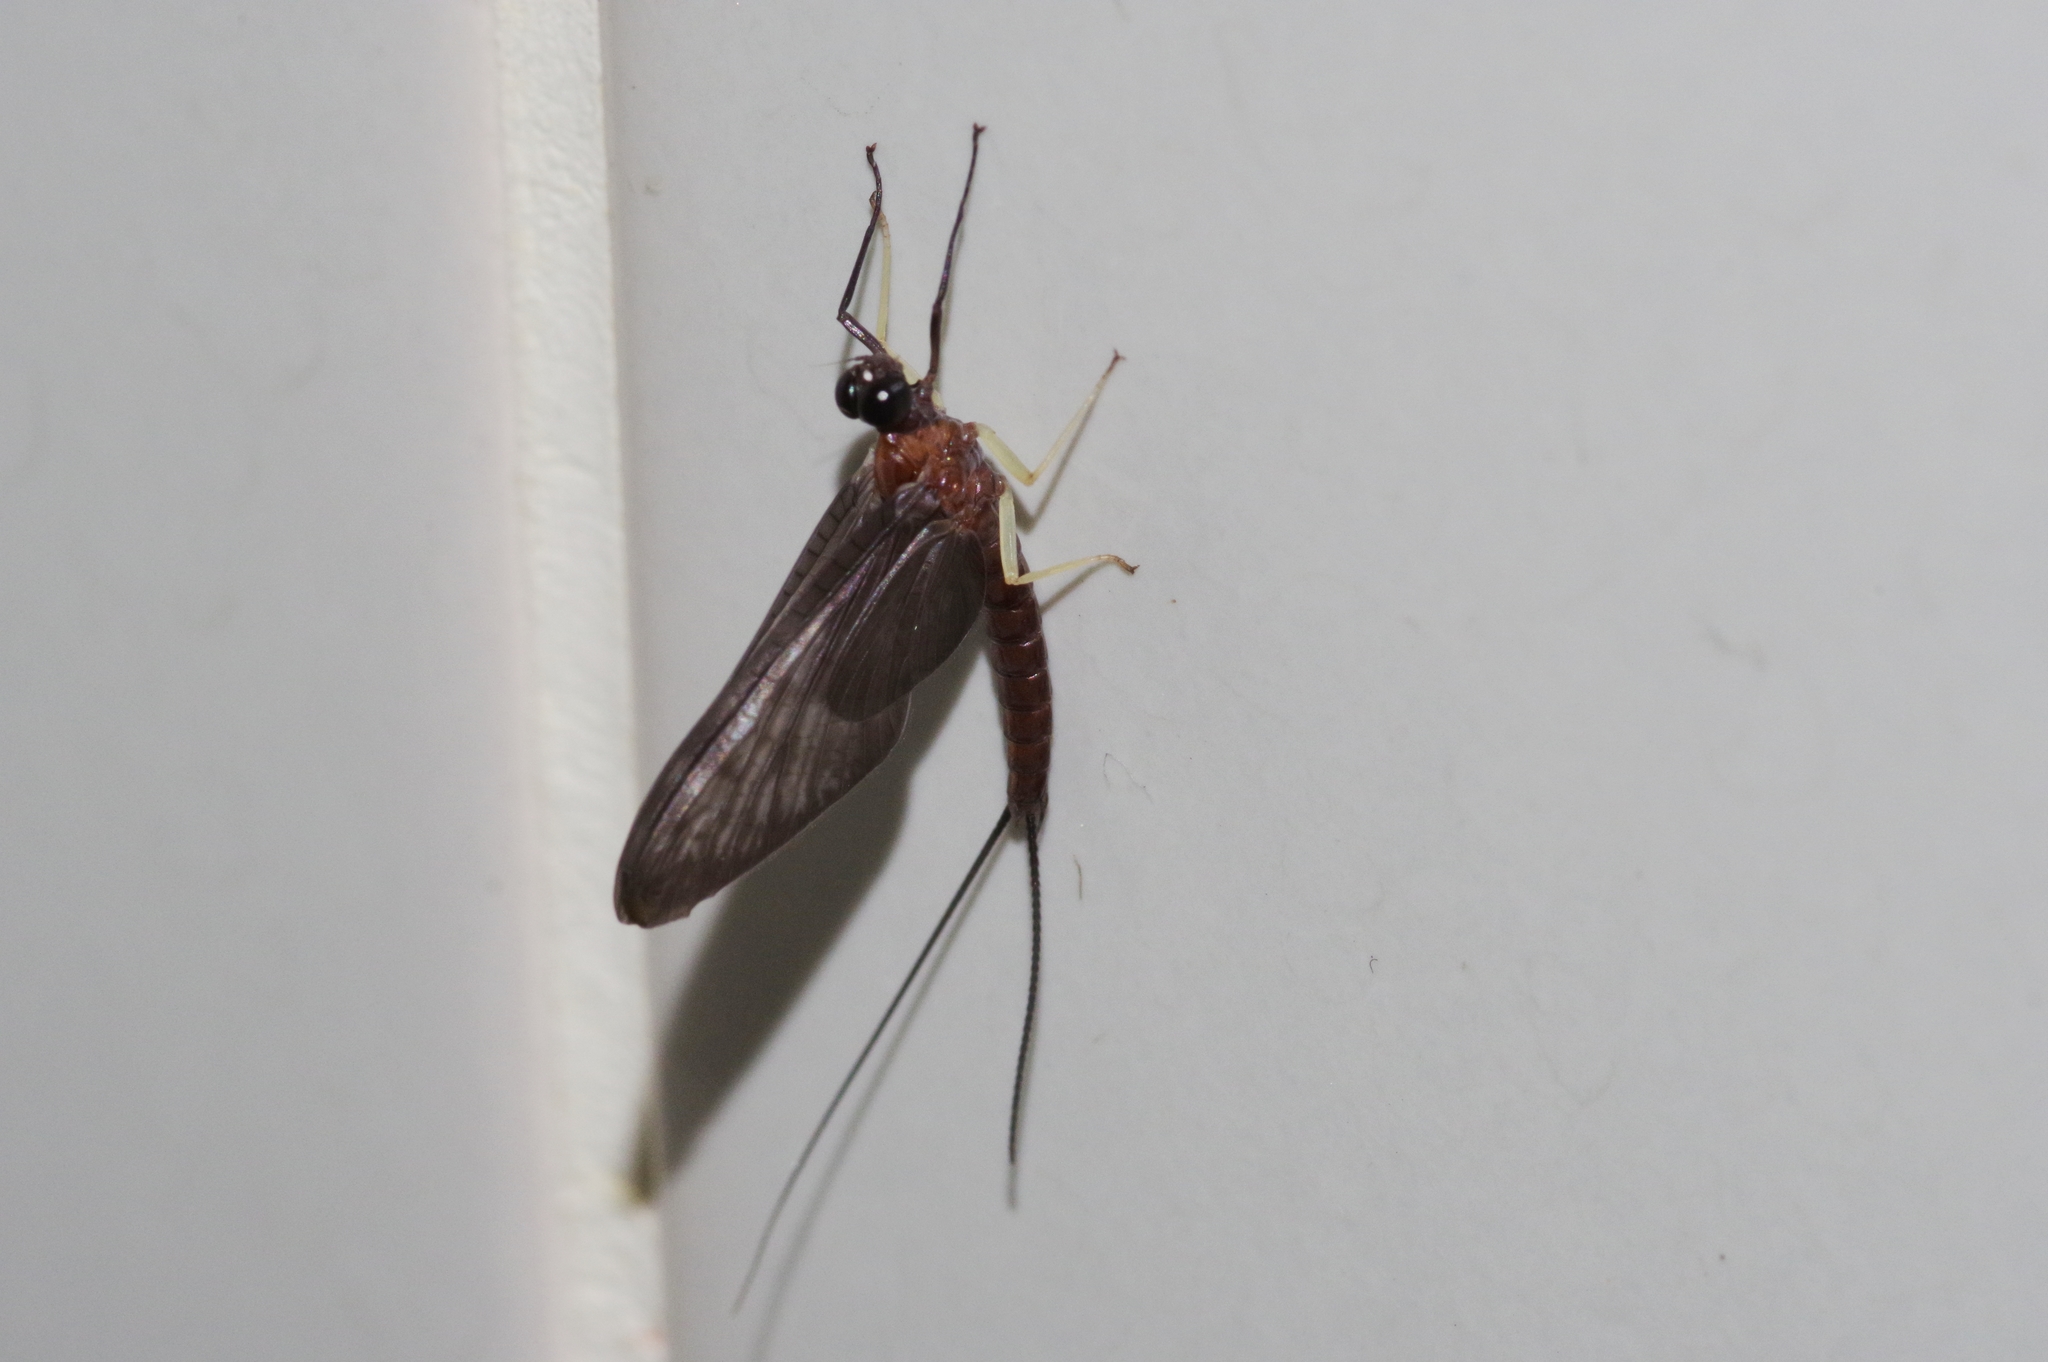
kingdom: Animalia
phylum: Arthropoda
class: Insecta
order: Ephemeroptera
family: Isonychiidae
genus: Isonychia
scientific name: Isonychia japonica
